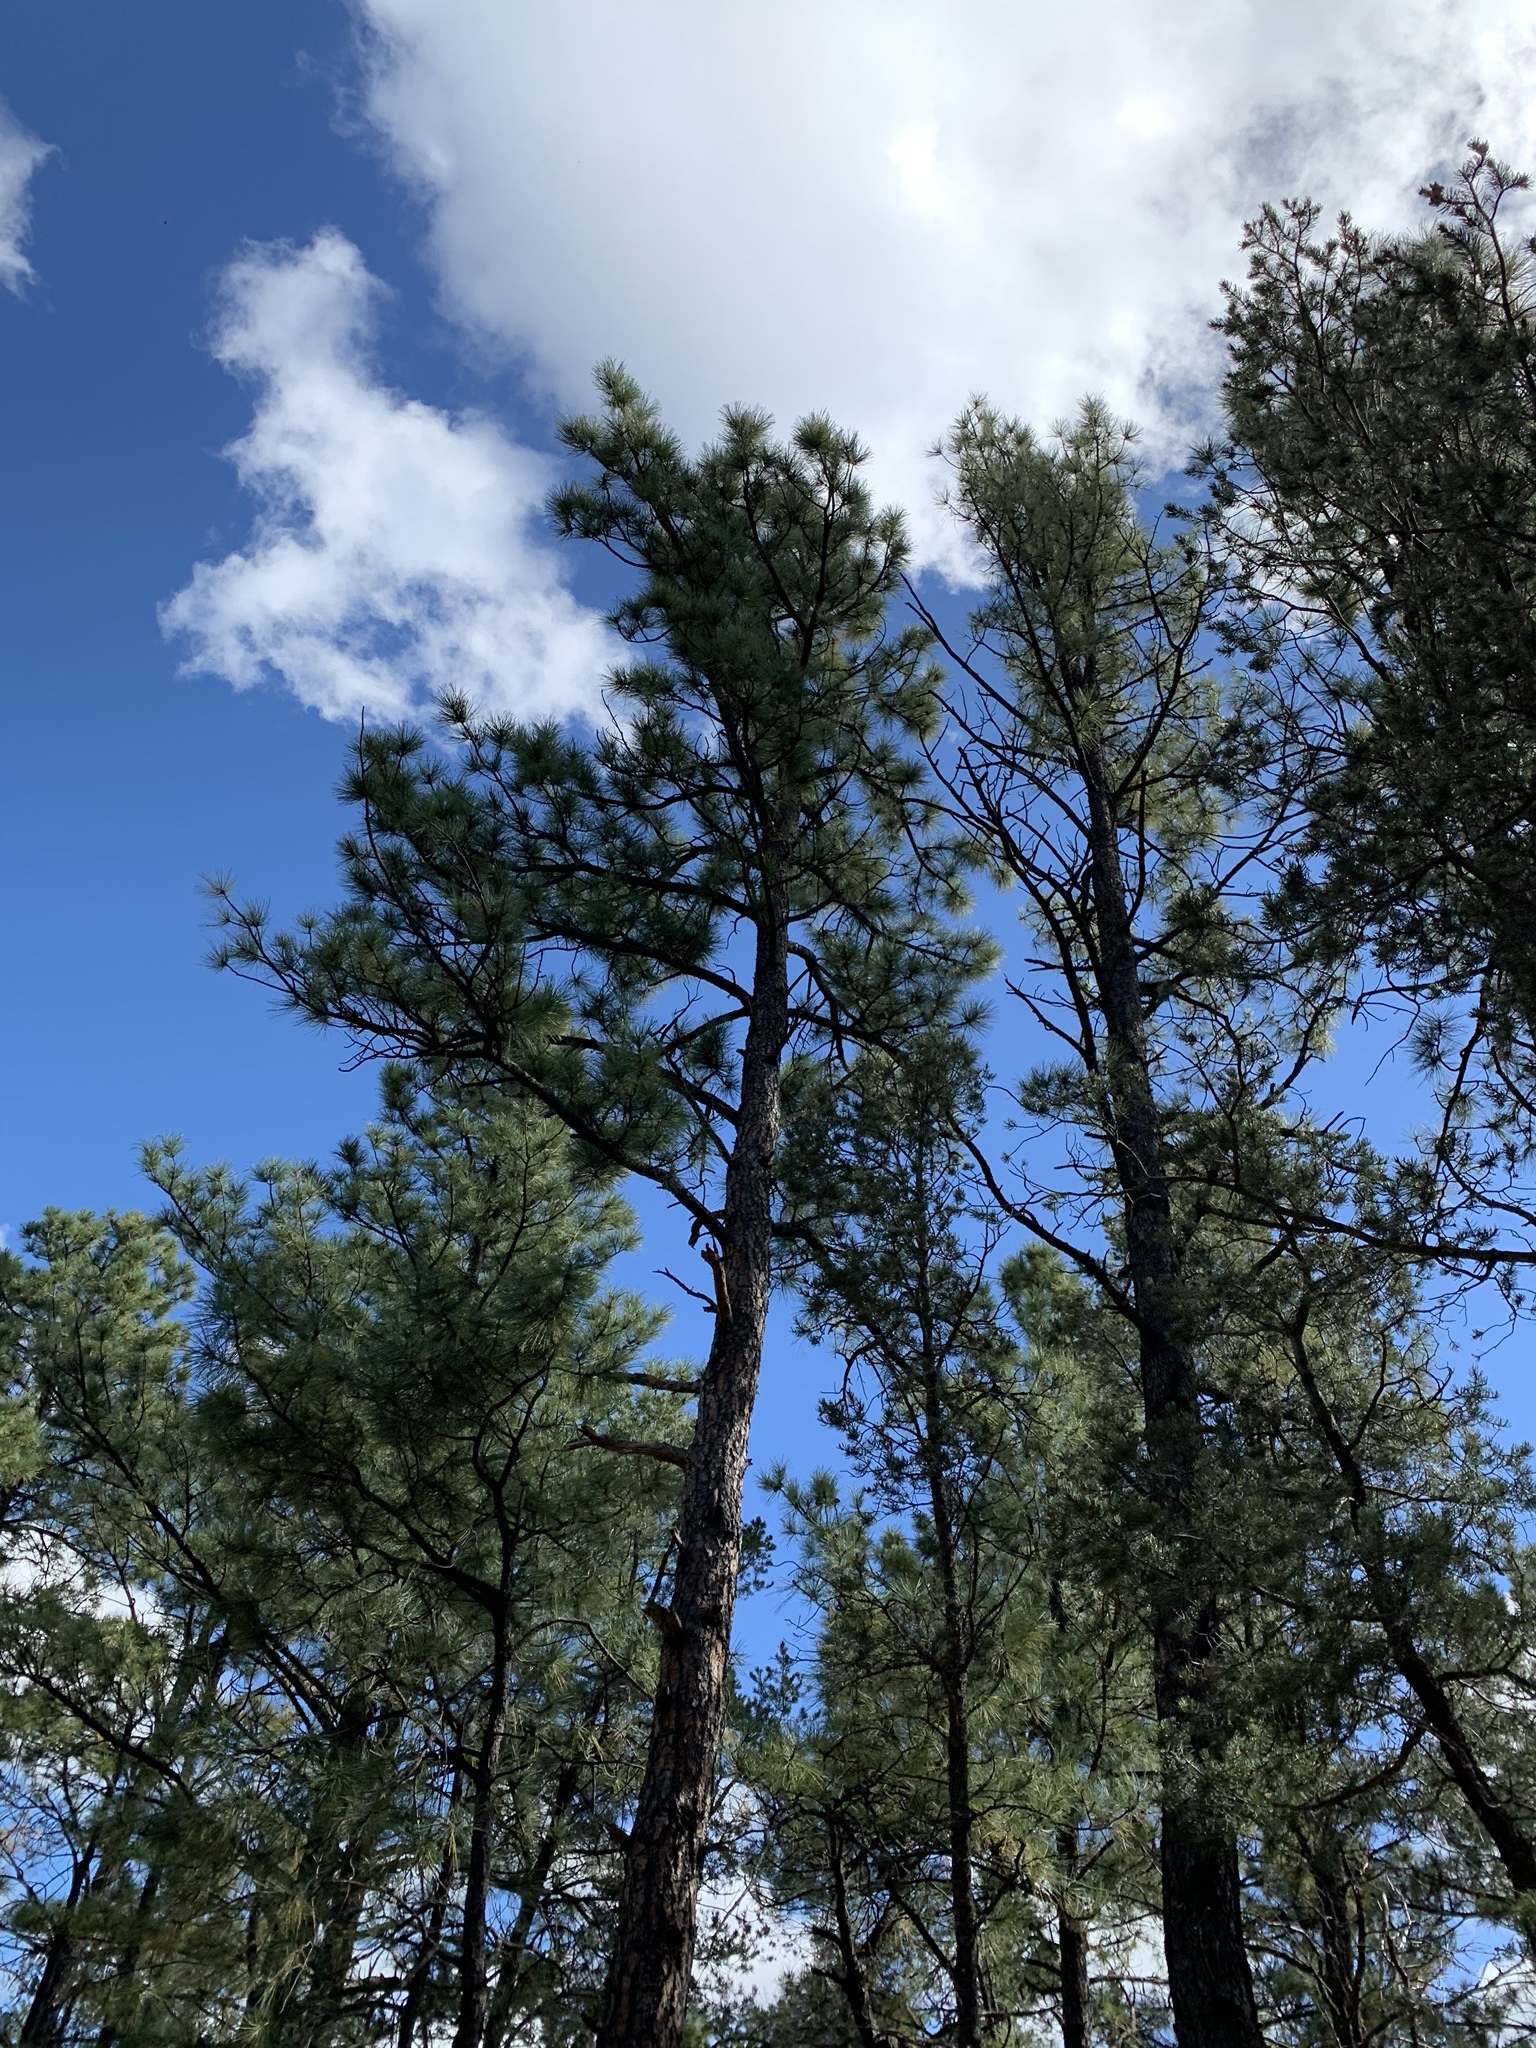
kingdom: Plantae
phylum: Tracheophyta
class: Pinopsida
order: Pinales
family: Pinaceae
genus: Pinus
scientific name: Pinus ponderosa
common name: Western yellow-pine
